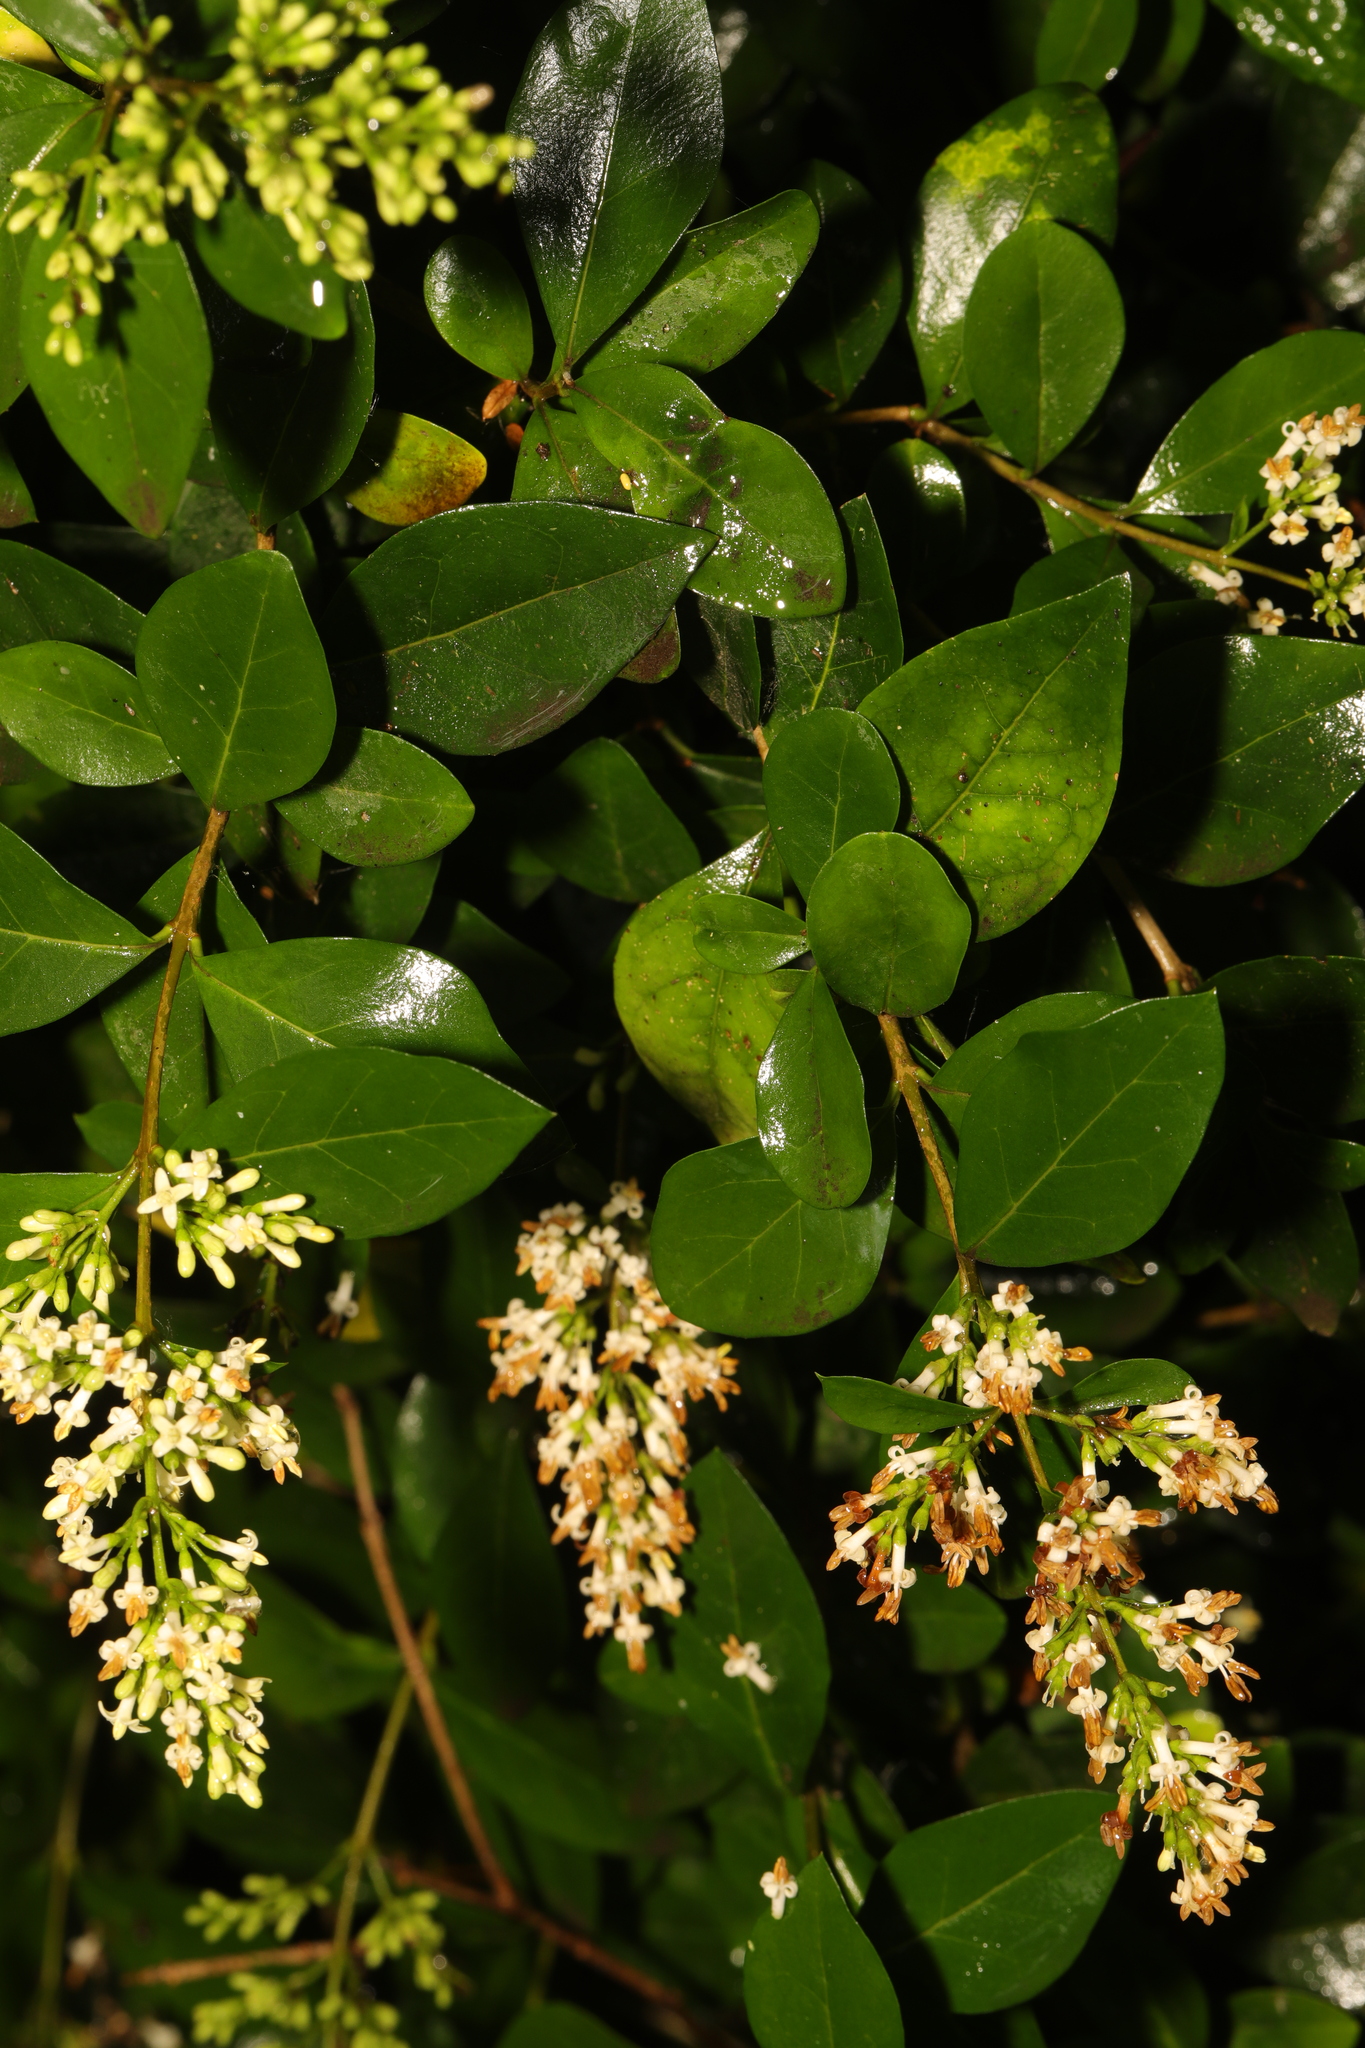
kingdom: Plantae
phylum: Tracheophyta
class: Magnoliopsida
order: Lamiales
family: Oleaceae
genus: Ligustrum
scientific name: Ligustrum ovalifolium
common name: California privet
